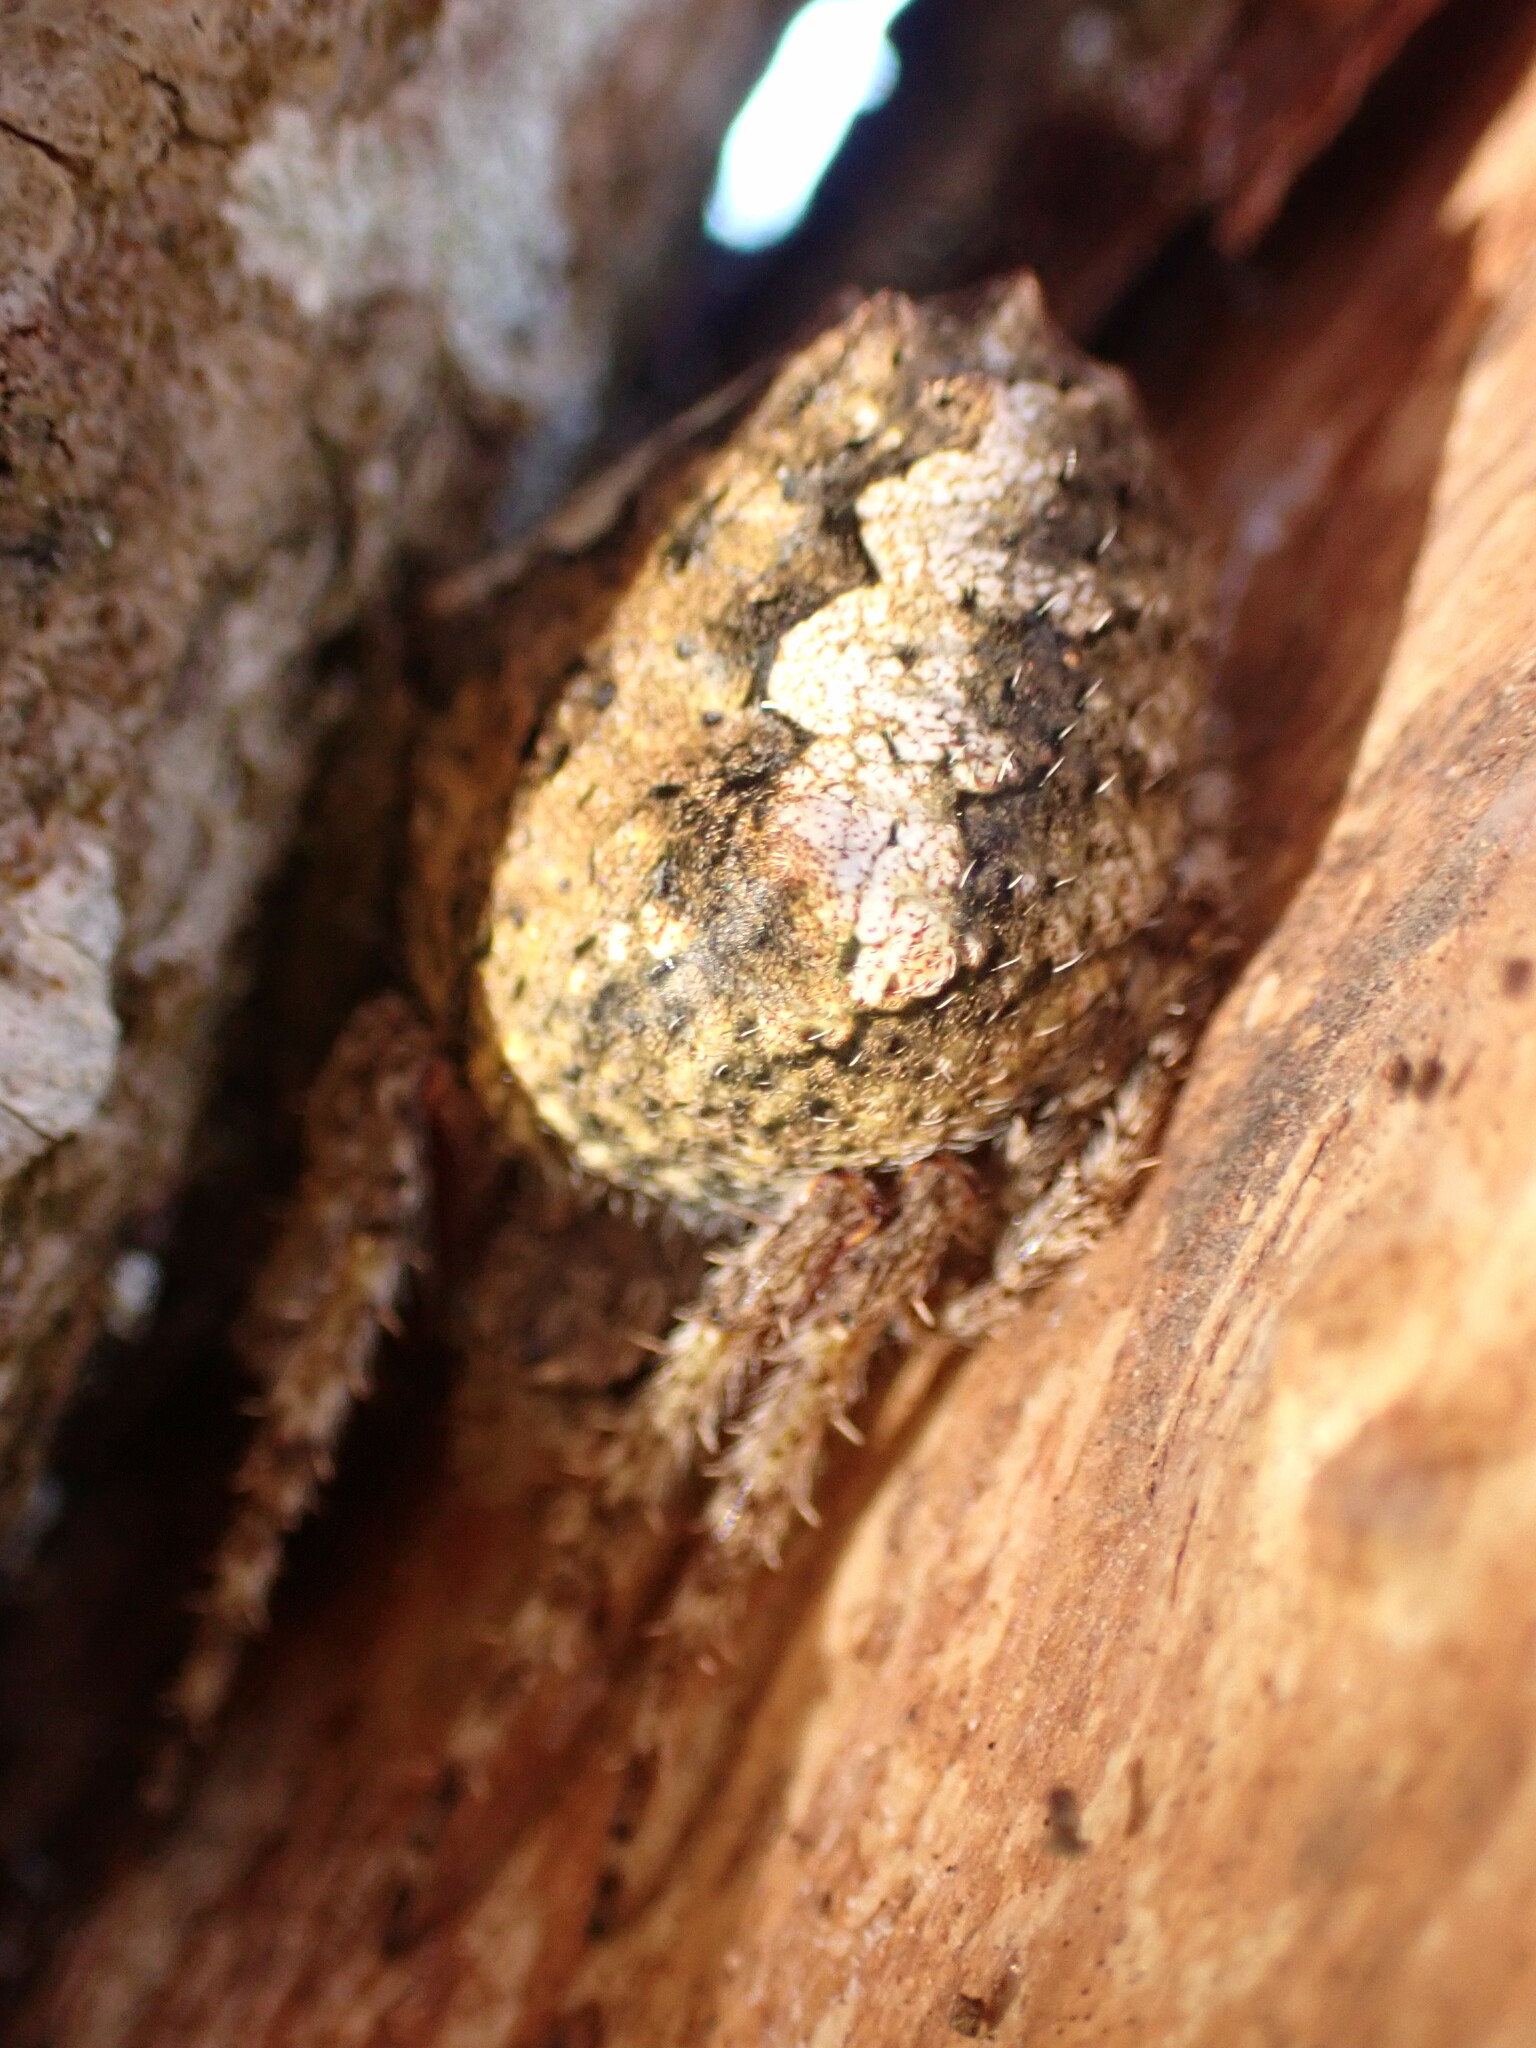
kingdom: Animalia
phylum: Arthropoda
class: Arachnida
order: Araneae
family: Araneidae
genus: Eriophora
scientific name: Eriophora pustulosa
